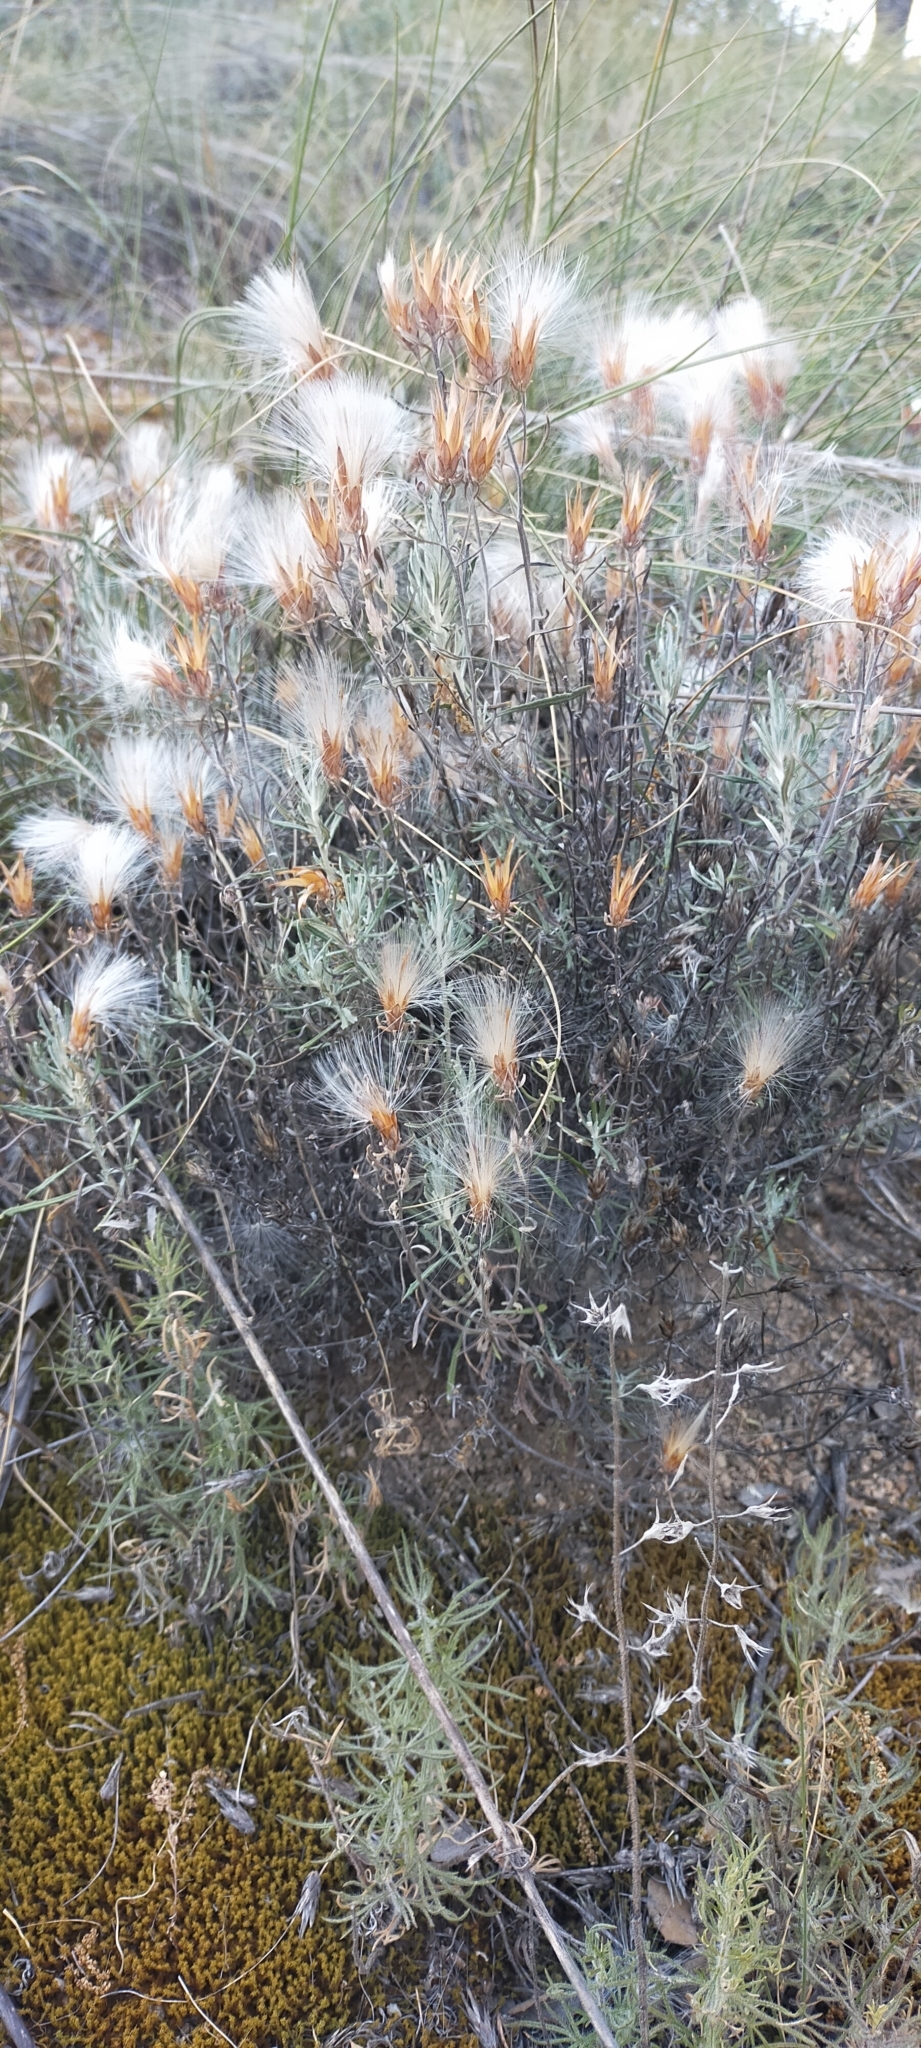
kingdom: Plantae
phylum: Tracheophyta
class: Magnoliopsida
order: Asterales
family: Asteraceae
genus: Staehelina
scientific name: Staehelina dubia
